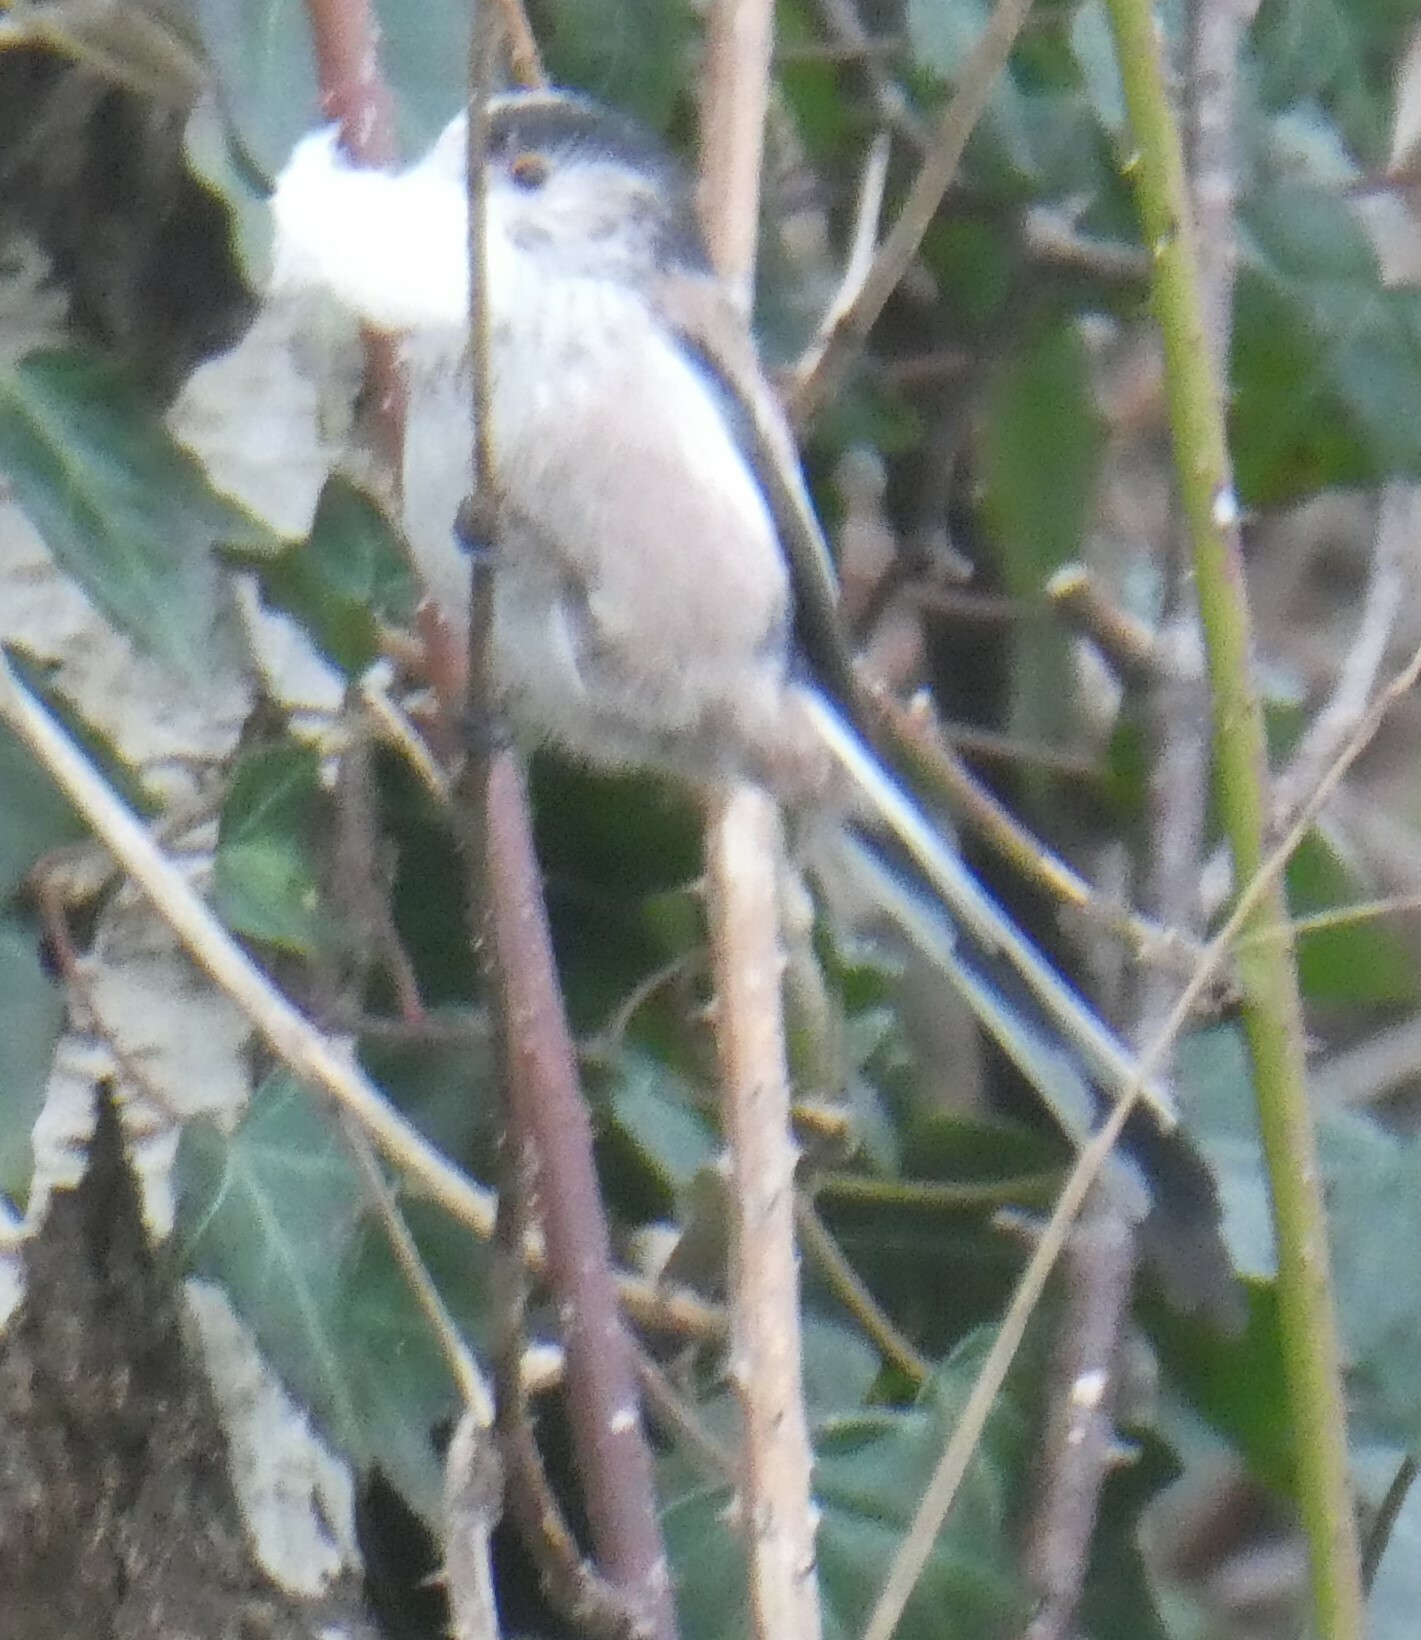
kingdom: Animalia
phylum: Chordata
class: Aves
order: Passeriformes
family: Aegithalidae
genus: Aegithalos
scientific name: Aegithalos caudatus
